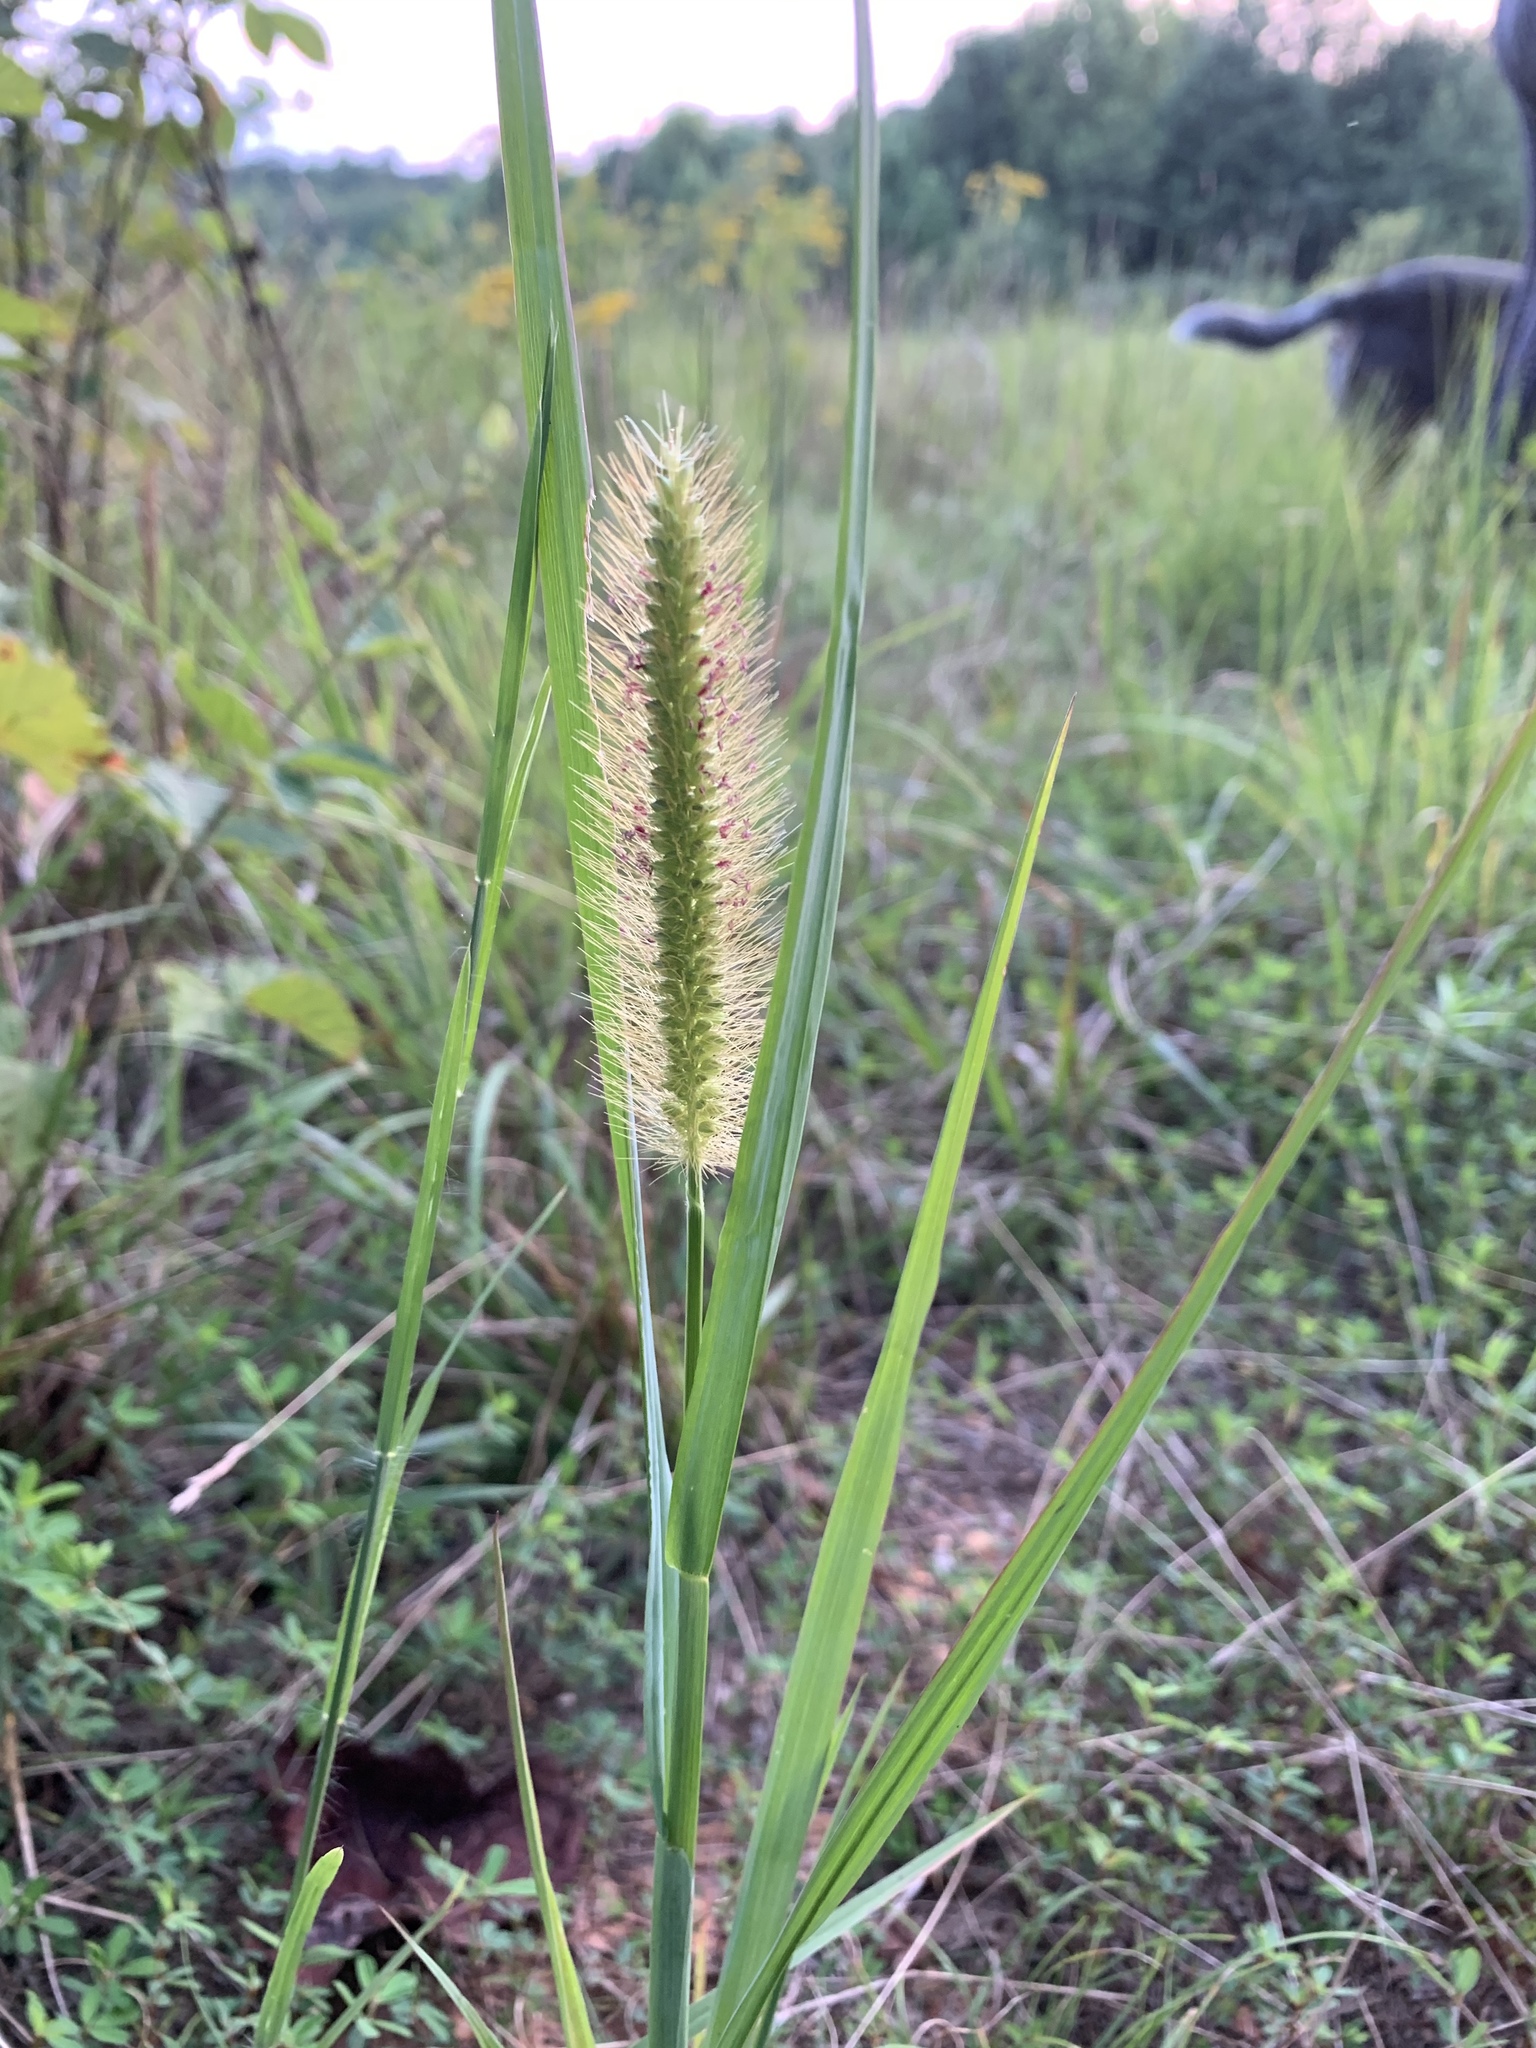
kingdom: Plantae
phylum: Tracheophyta
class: Liliopsida
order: Poales
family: Poaceae
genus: Setaria
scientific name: Setaria parviflora
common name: Knotroot bristle-grass
